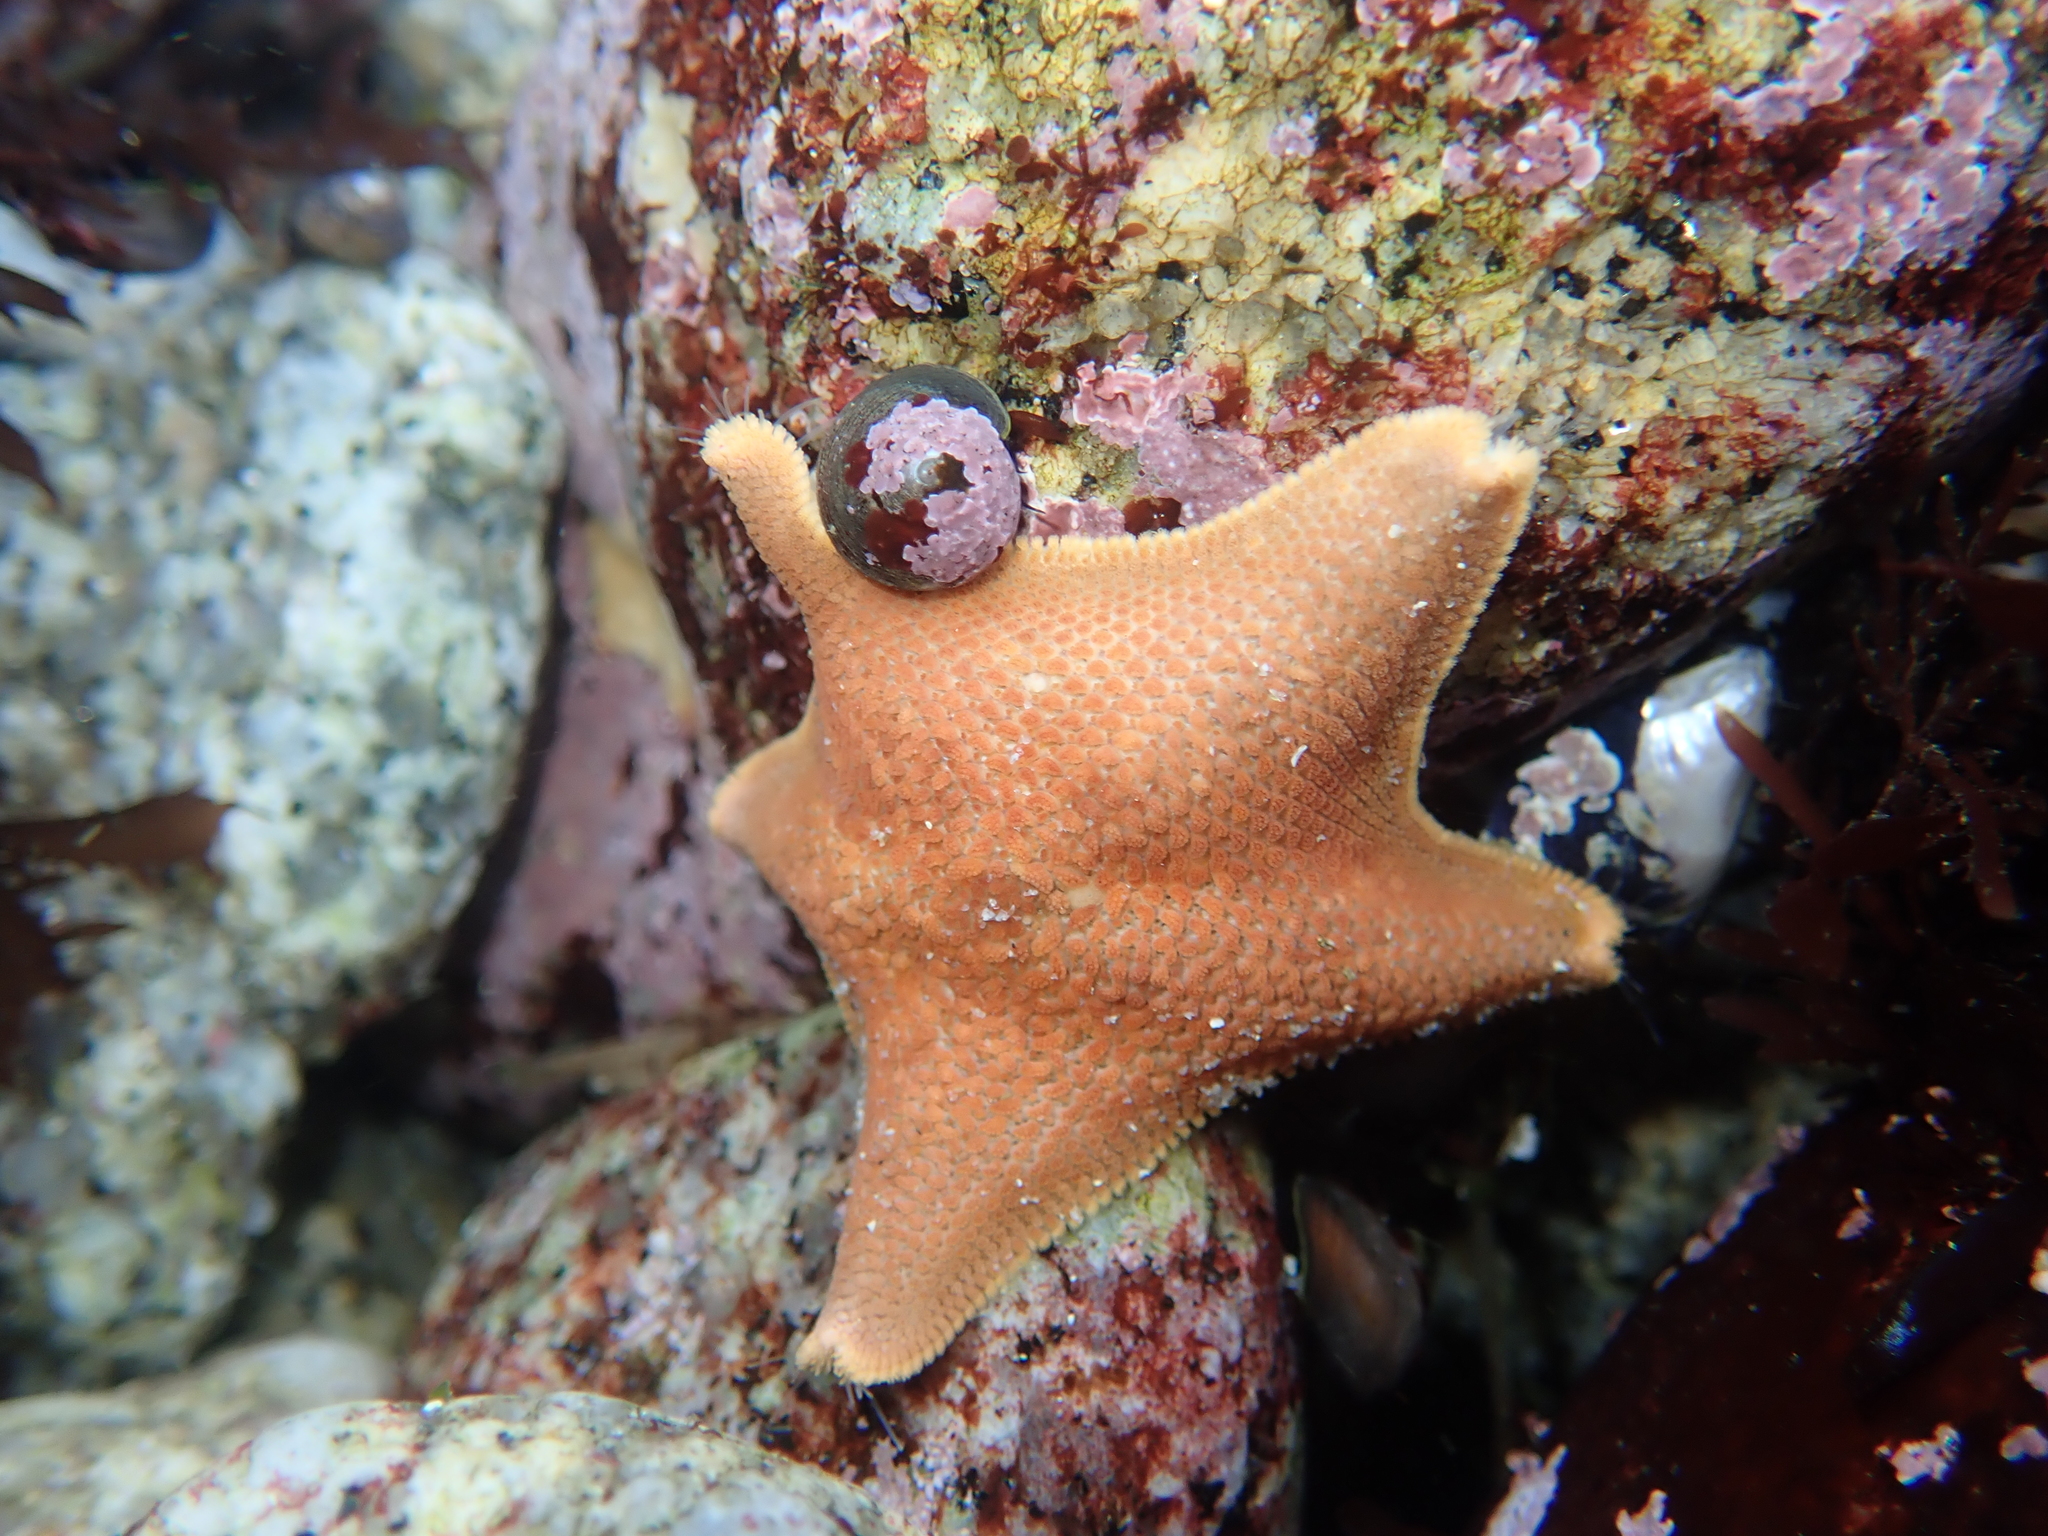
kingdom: Animalia
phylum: Echinodermata
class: Asteroidea
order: Valvatida
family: Asterinidae
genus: Patiria
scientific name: Patiria miniata
